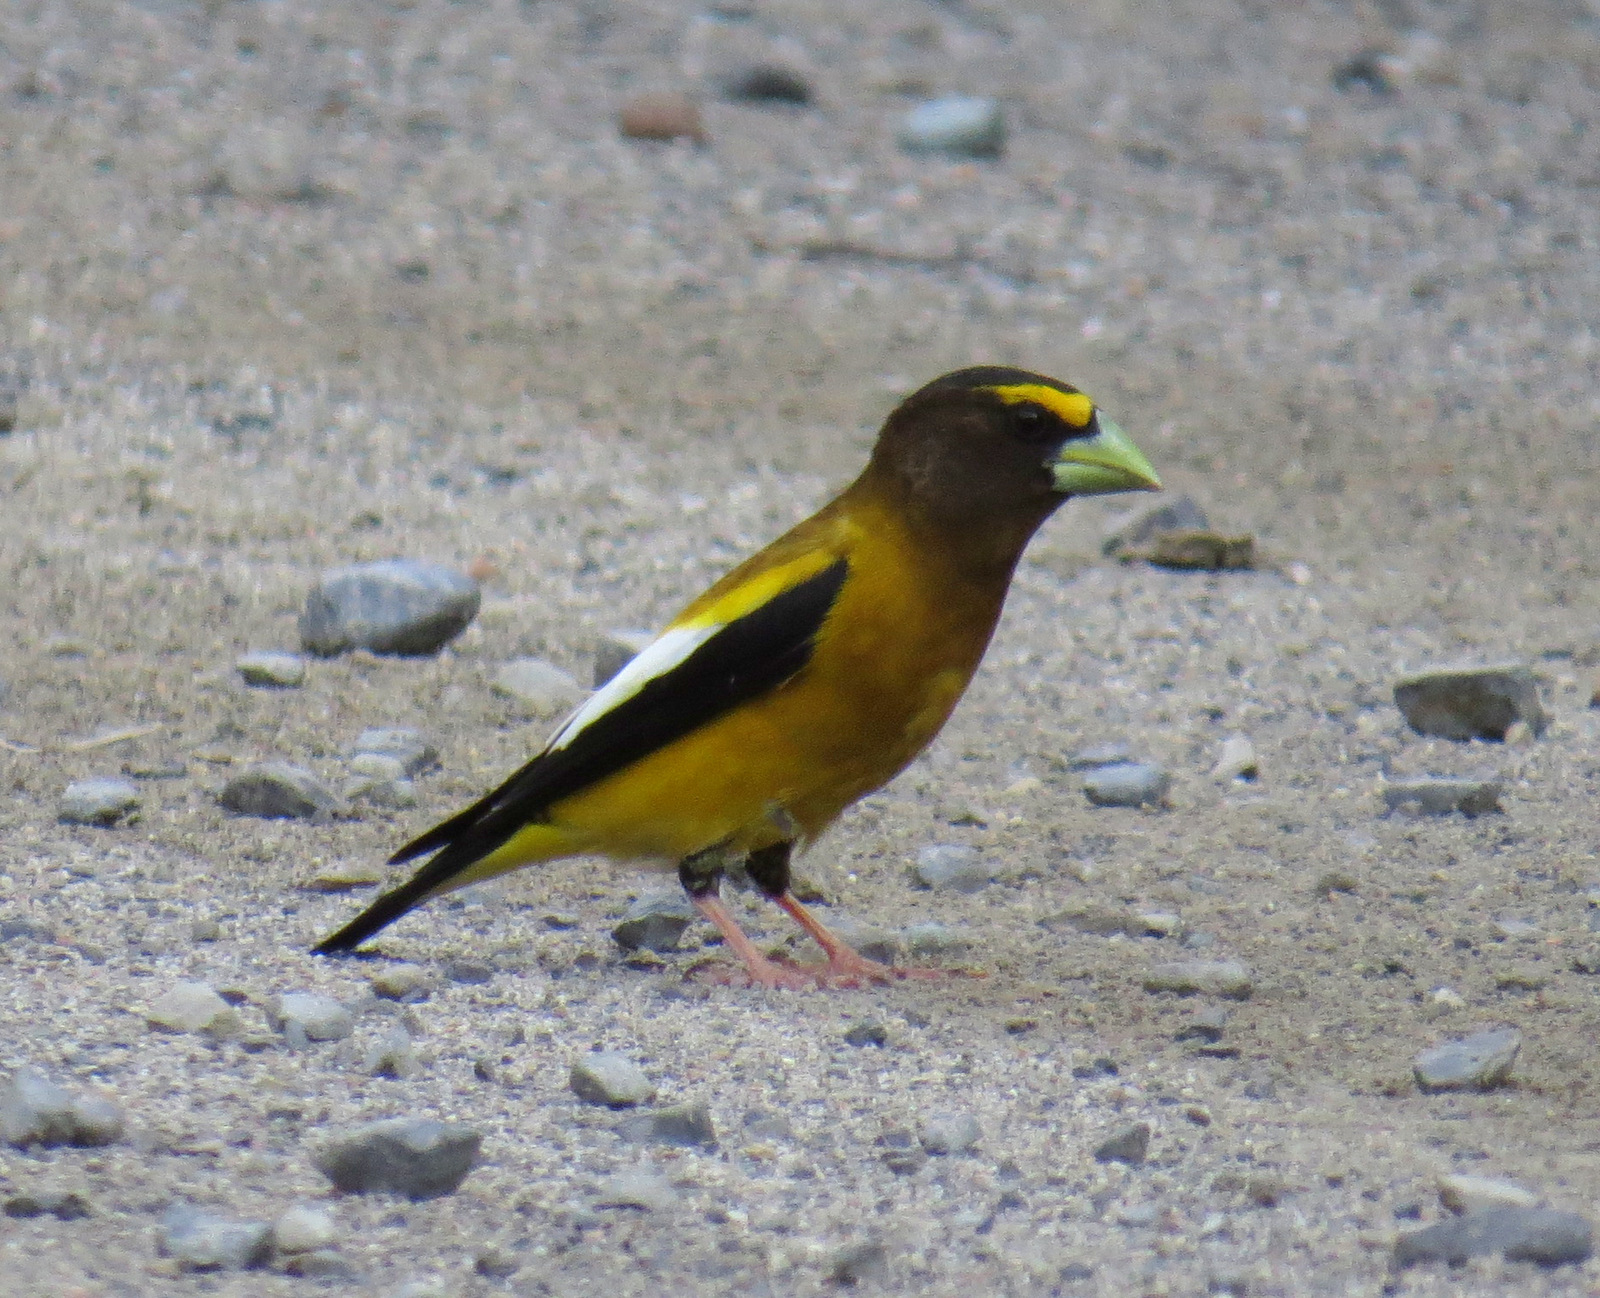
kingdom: Animalia
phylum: Chordata
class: Aves
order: Passeriformes
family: Fringillidae
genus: Hesperiphona
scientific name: Hesperiphona vespertina
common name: Evening grosbeak
